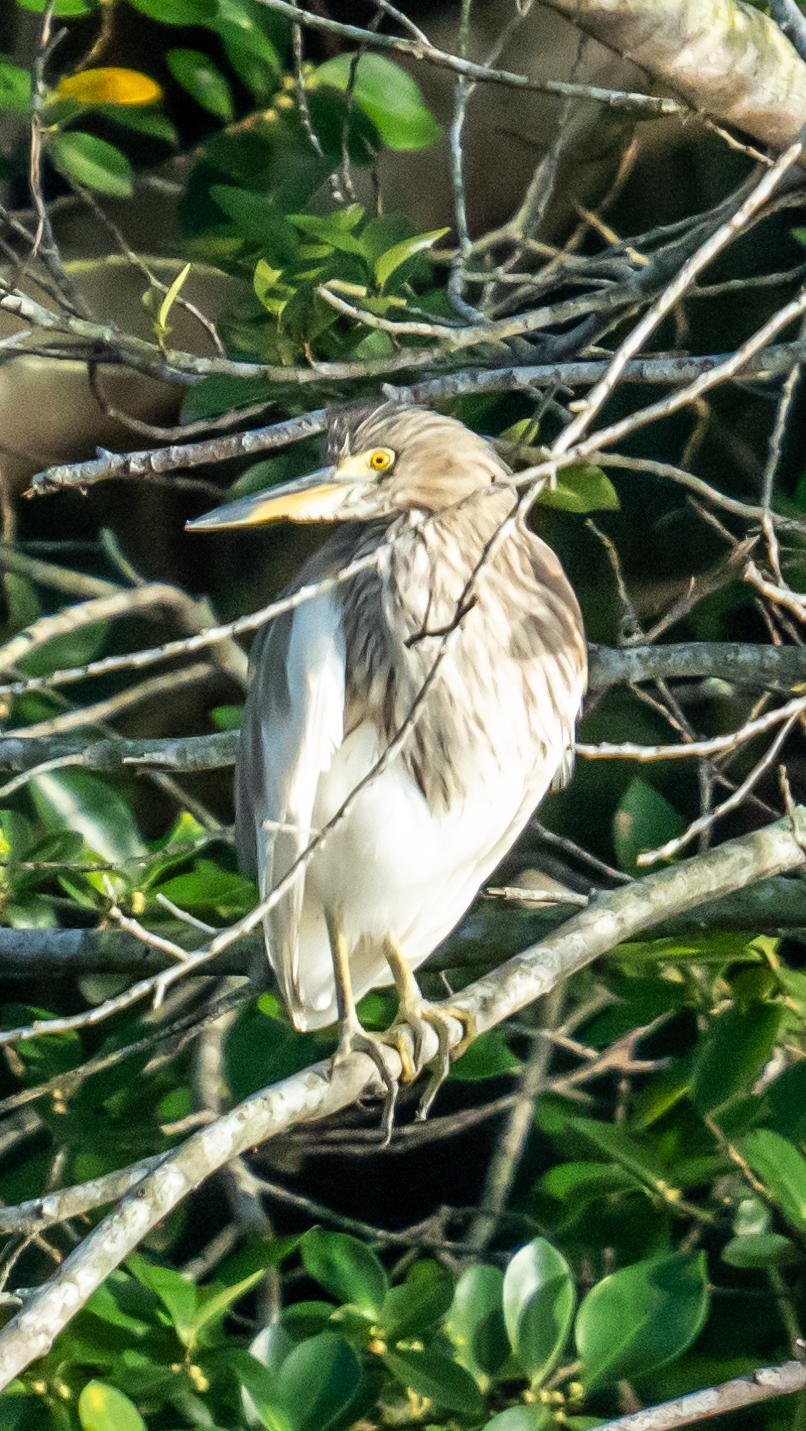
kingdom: Animalia
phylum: Chordata
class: Aves
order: Pelecaniformes
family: Ardeidae
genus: Ardeola
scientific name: Ardeola
